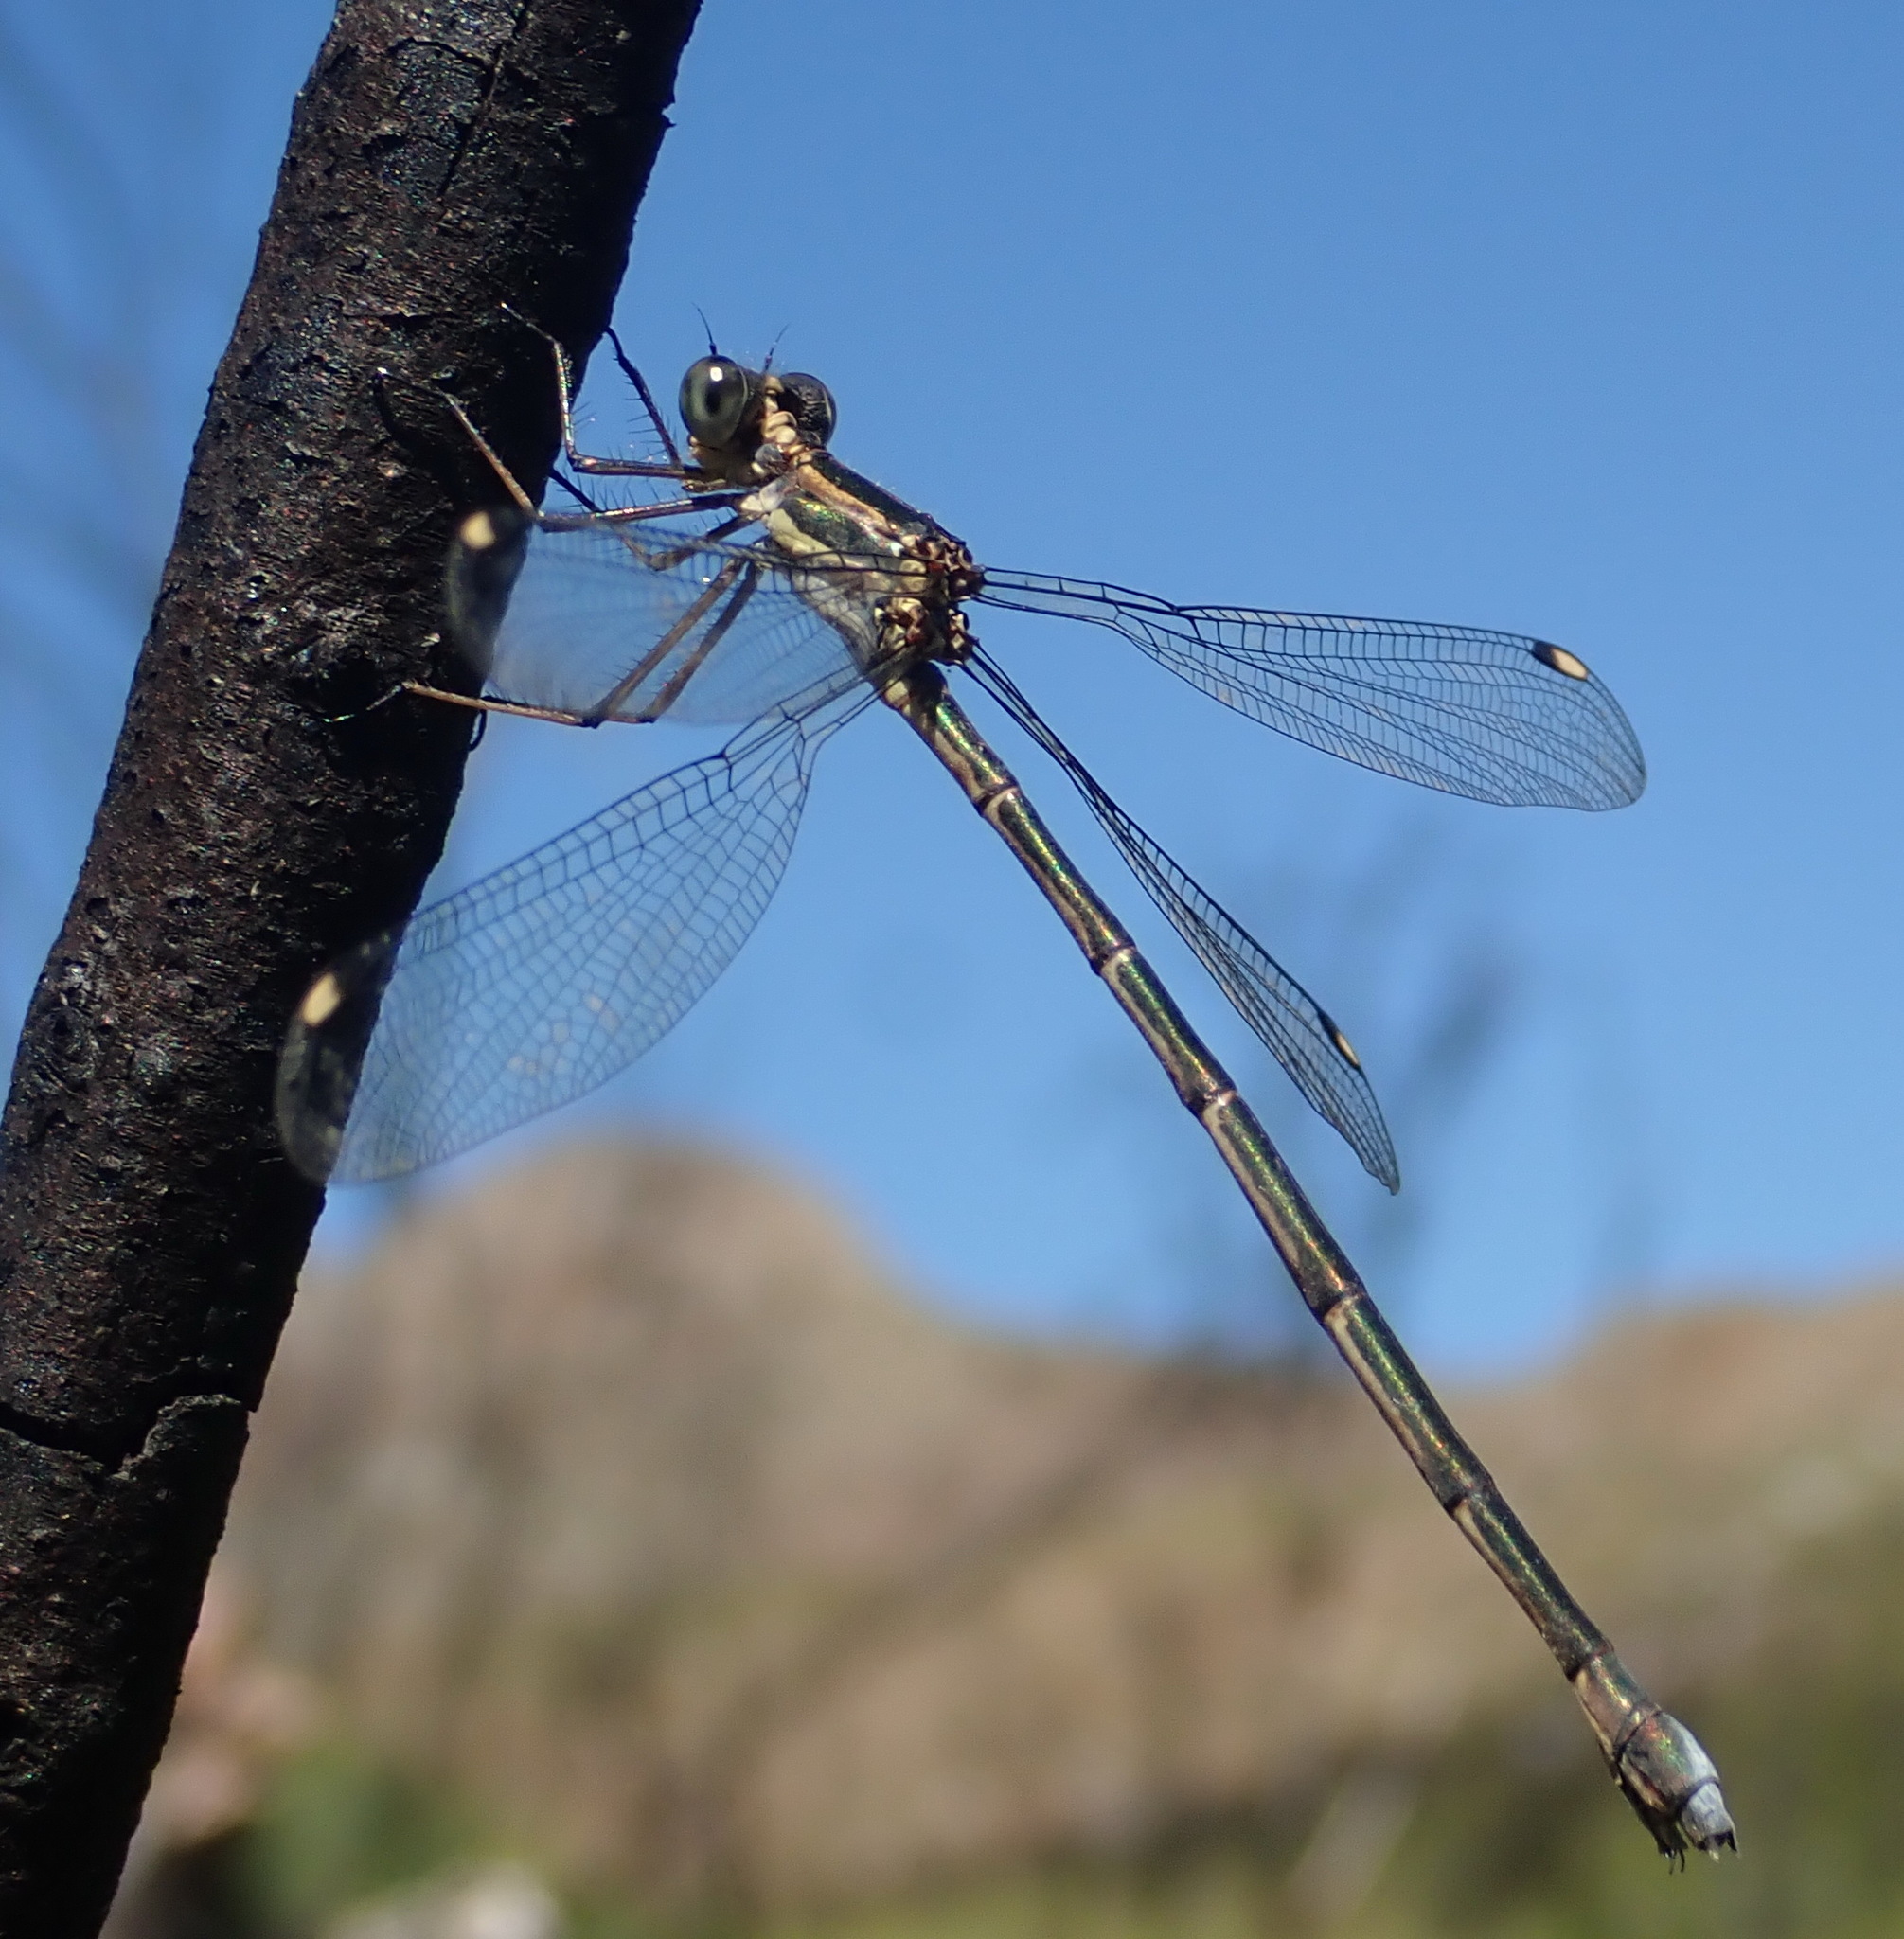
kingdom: Animalia
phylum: Arthropoda
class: Insecta
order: Odonata
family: Synlestidae
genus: Chlorolestes
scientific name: Chlorolestes tessellatus
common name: Forest malachite
